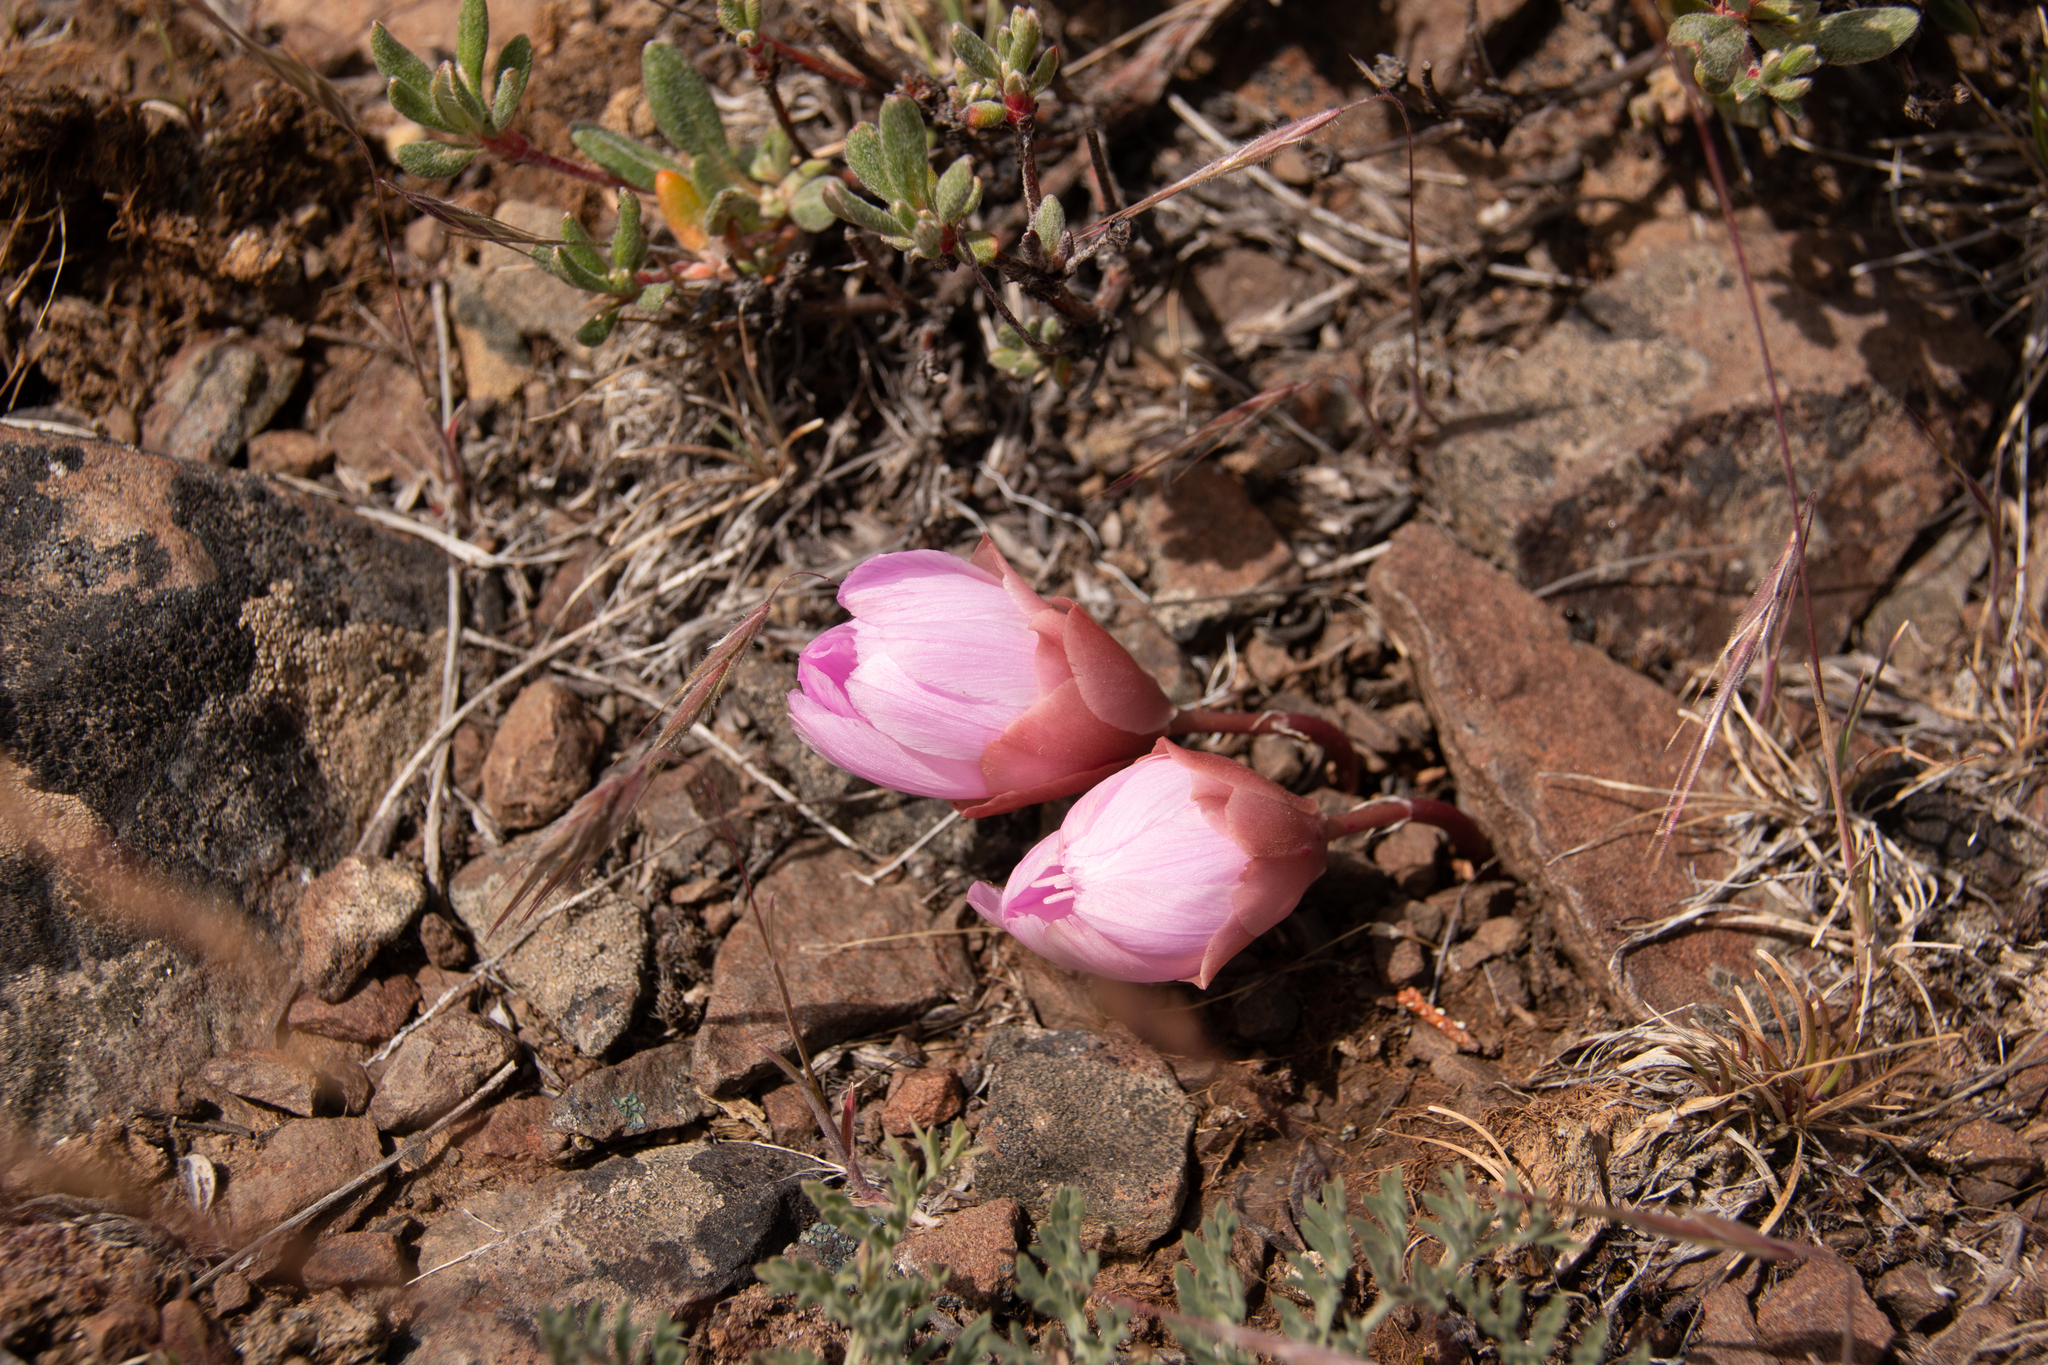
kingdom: Plantae
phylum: Tracheophyta
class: Magnoliopsida
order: Caryophyllales
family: Montiaceae
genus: Lewisia
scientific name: Lewisia rediviva
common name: Bitter-root
